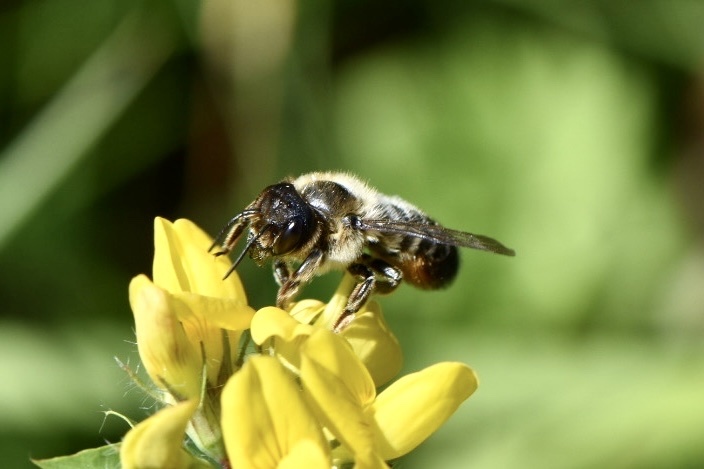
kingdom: Animalia
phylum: Arthropoda
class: Insecta
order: Hymenoptera
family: Megachilidae
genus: Megachile
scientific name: Megachile willughbiella
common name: Willughby's leafcutter bee
